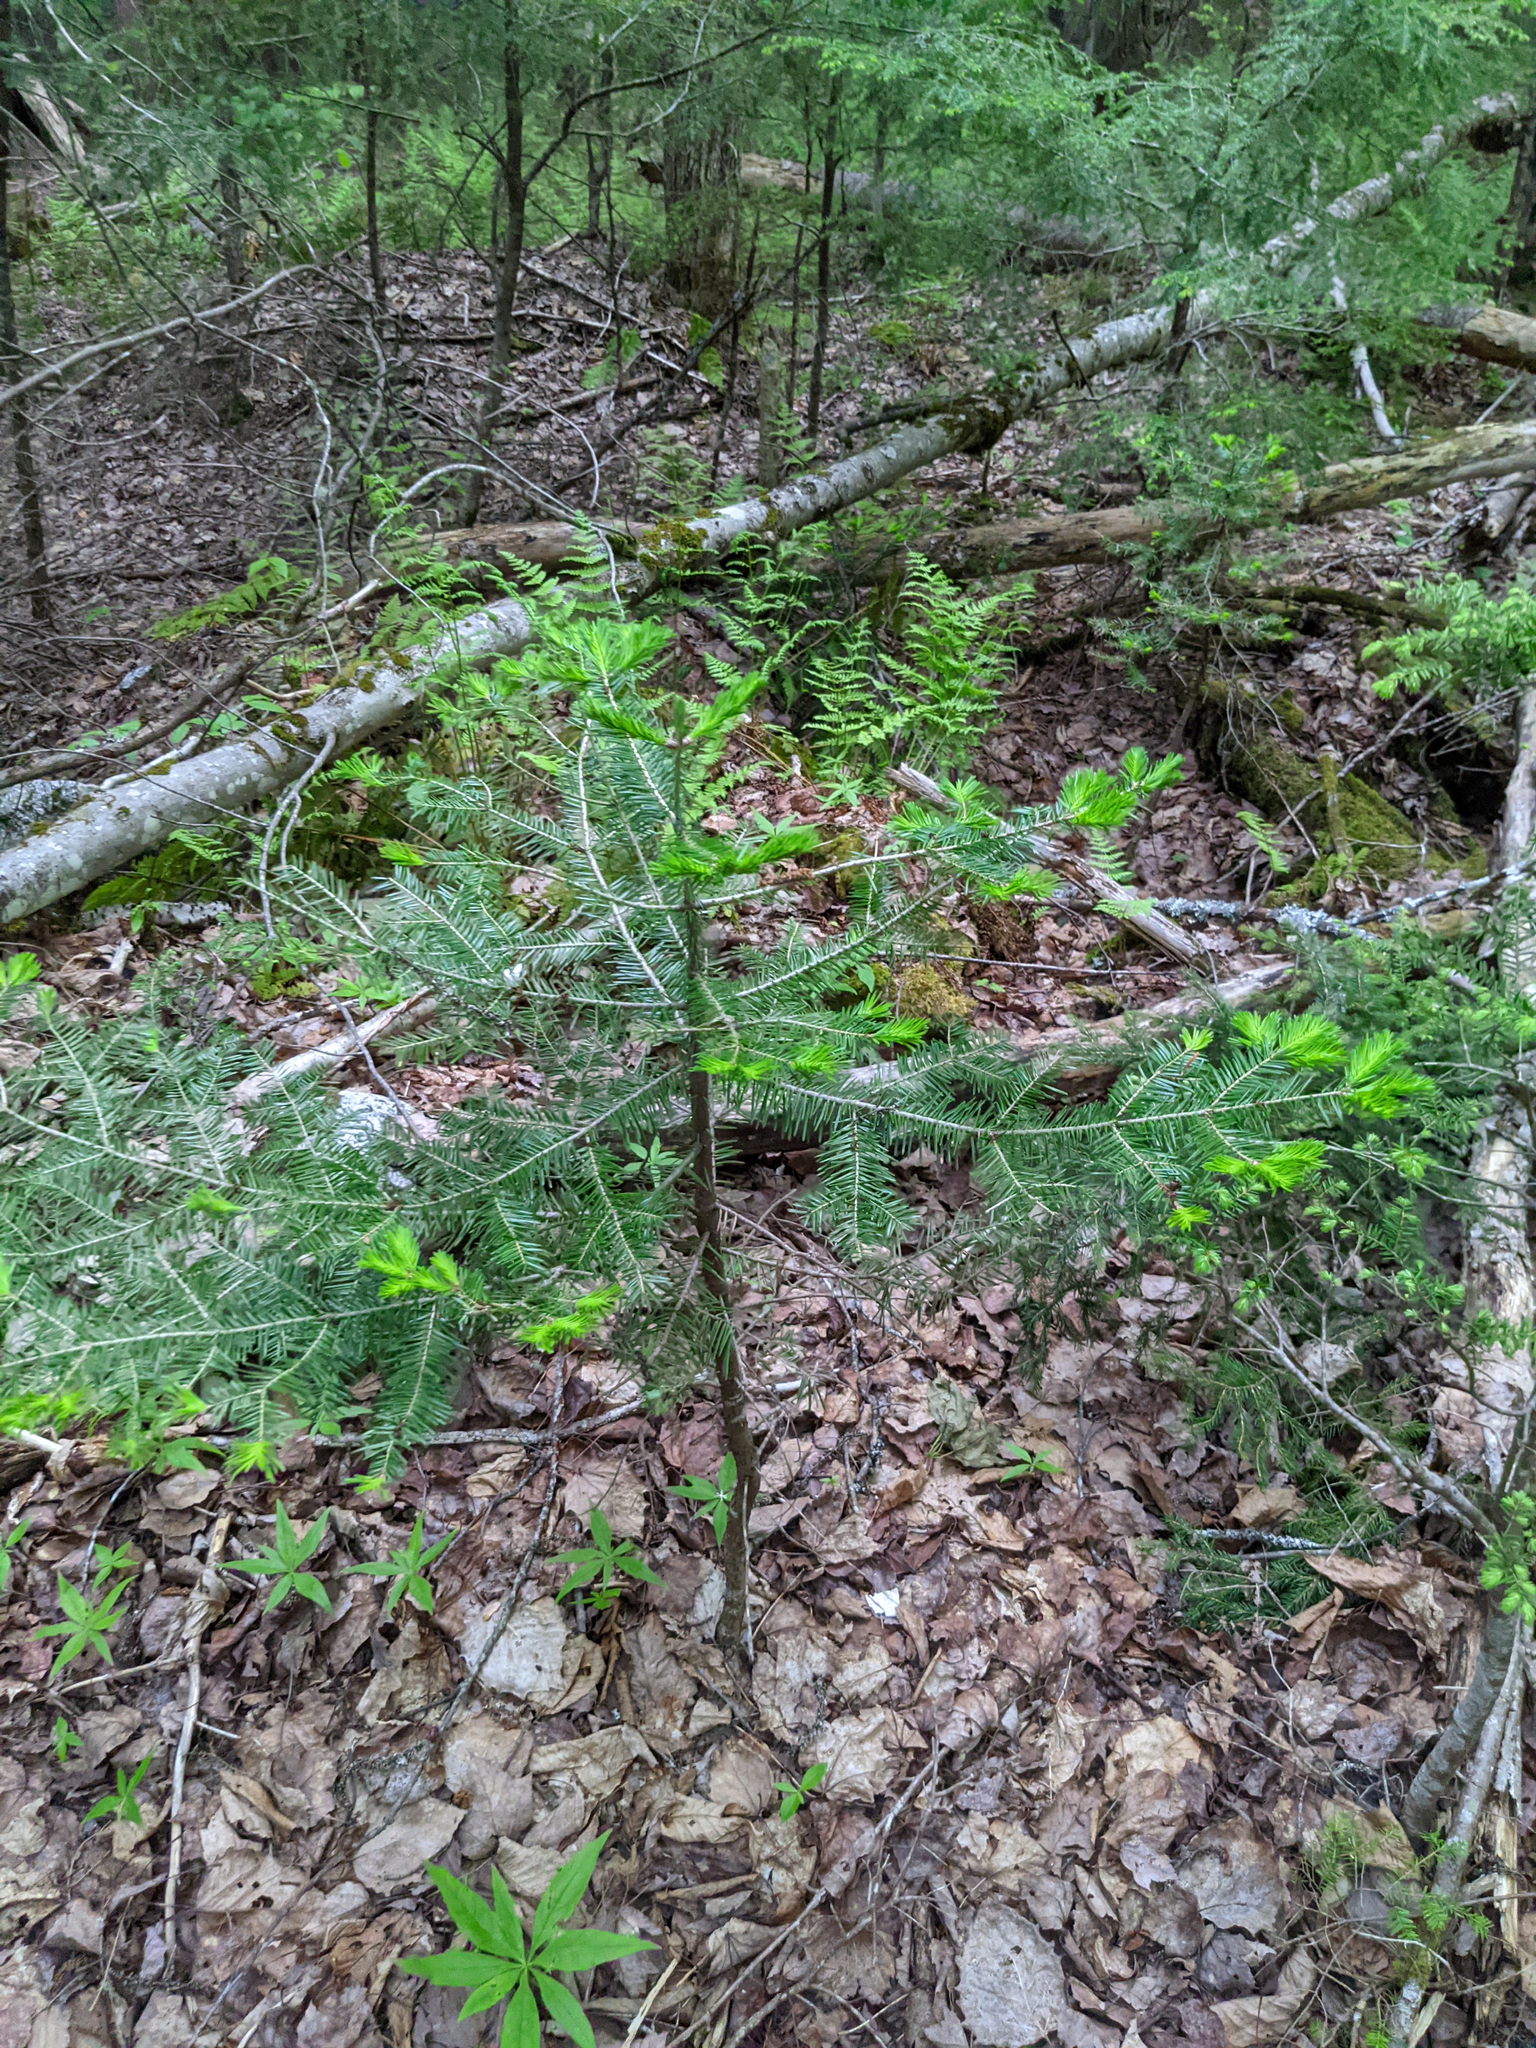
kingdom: Plantae
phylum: Tracheophyta
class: Pinopsida
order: Pinales
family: Pinaceae
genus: Abies
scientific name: Abies balsamea
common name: Balsam fir
